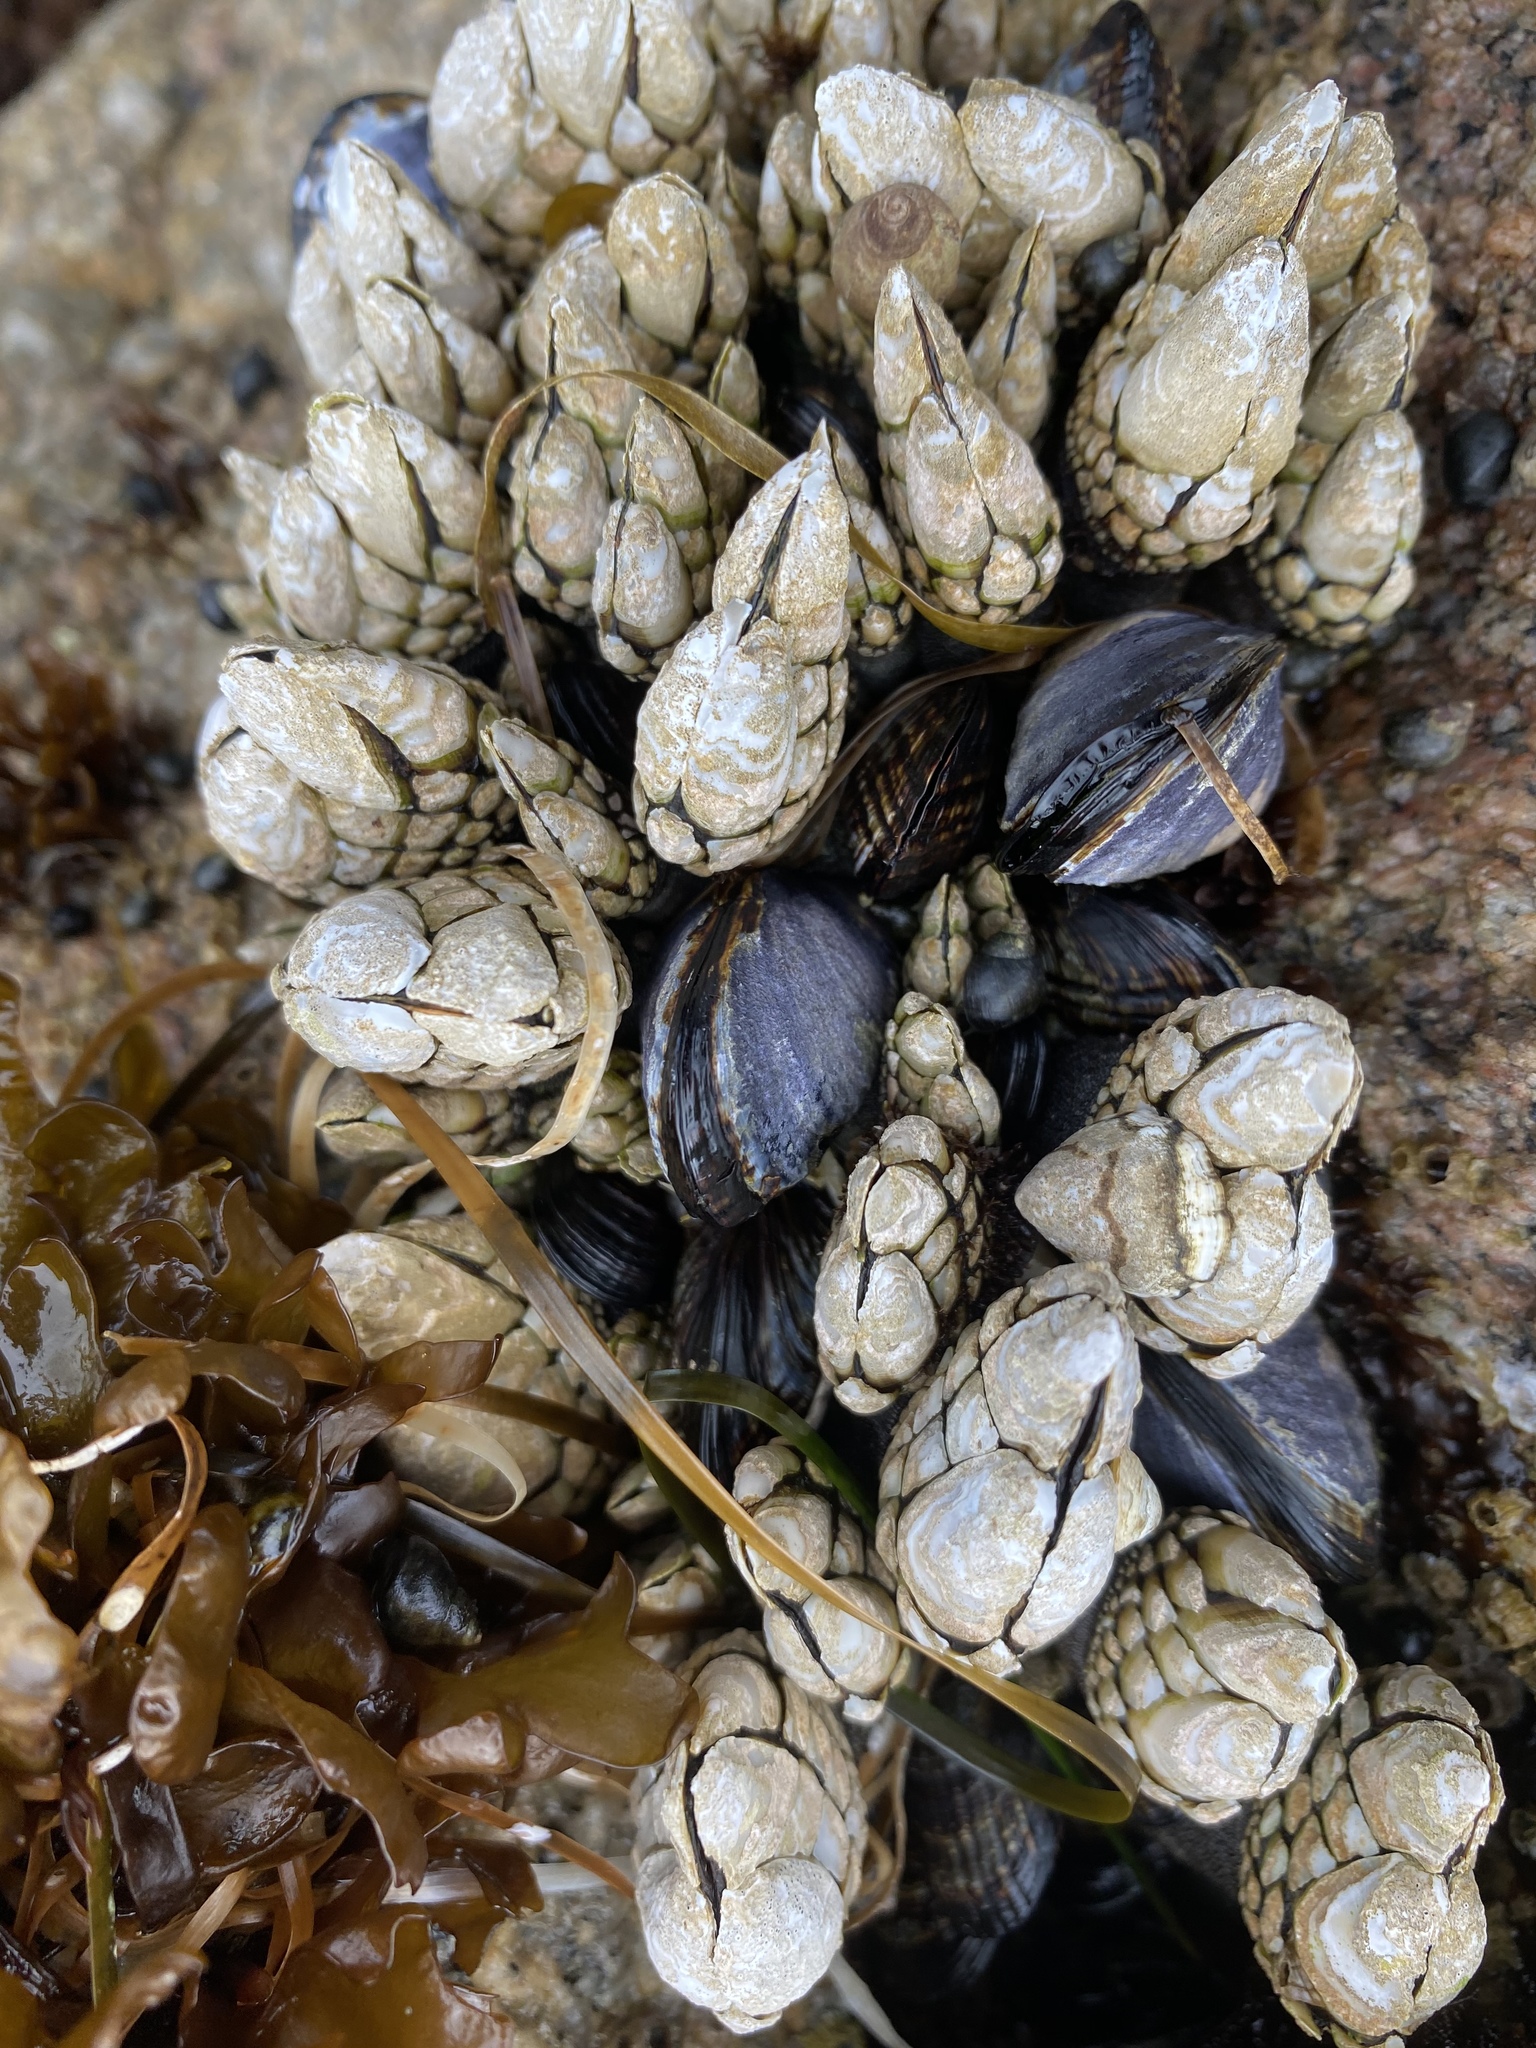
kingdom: Animalia
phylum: Arthropoda
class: Maxillopoda
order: Pedunculata
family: Pollicipedidae
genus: Pollicipes
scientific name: Pollicipes polymerus
